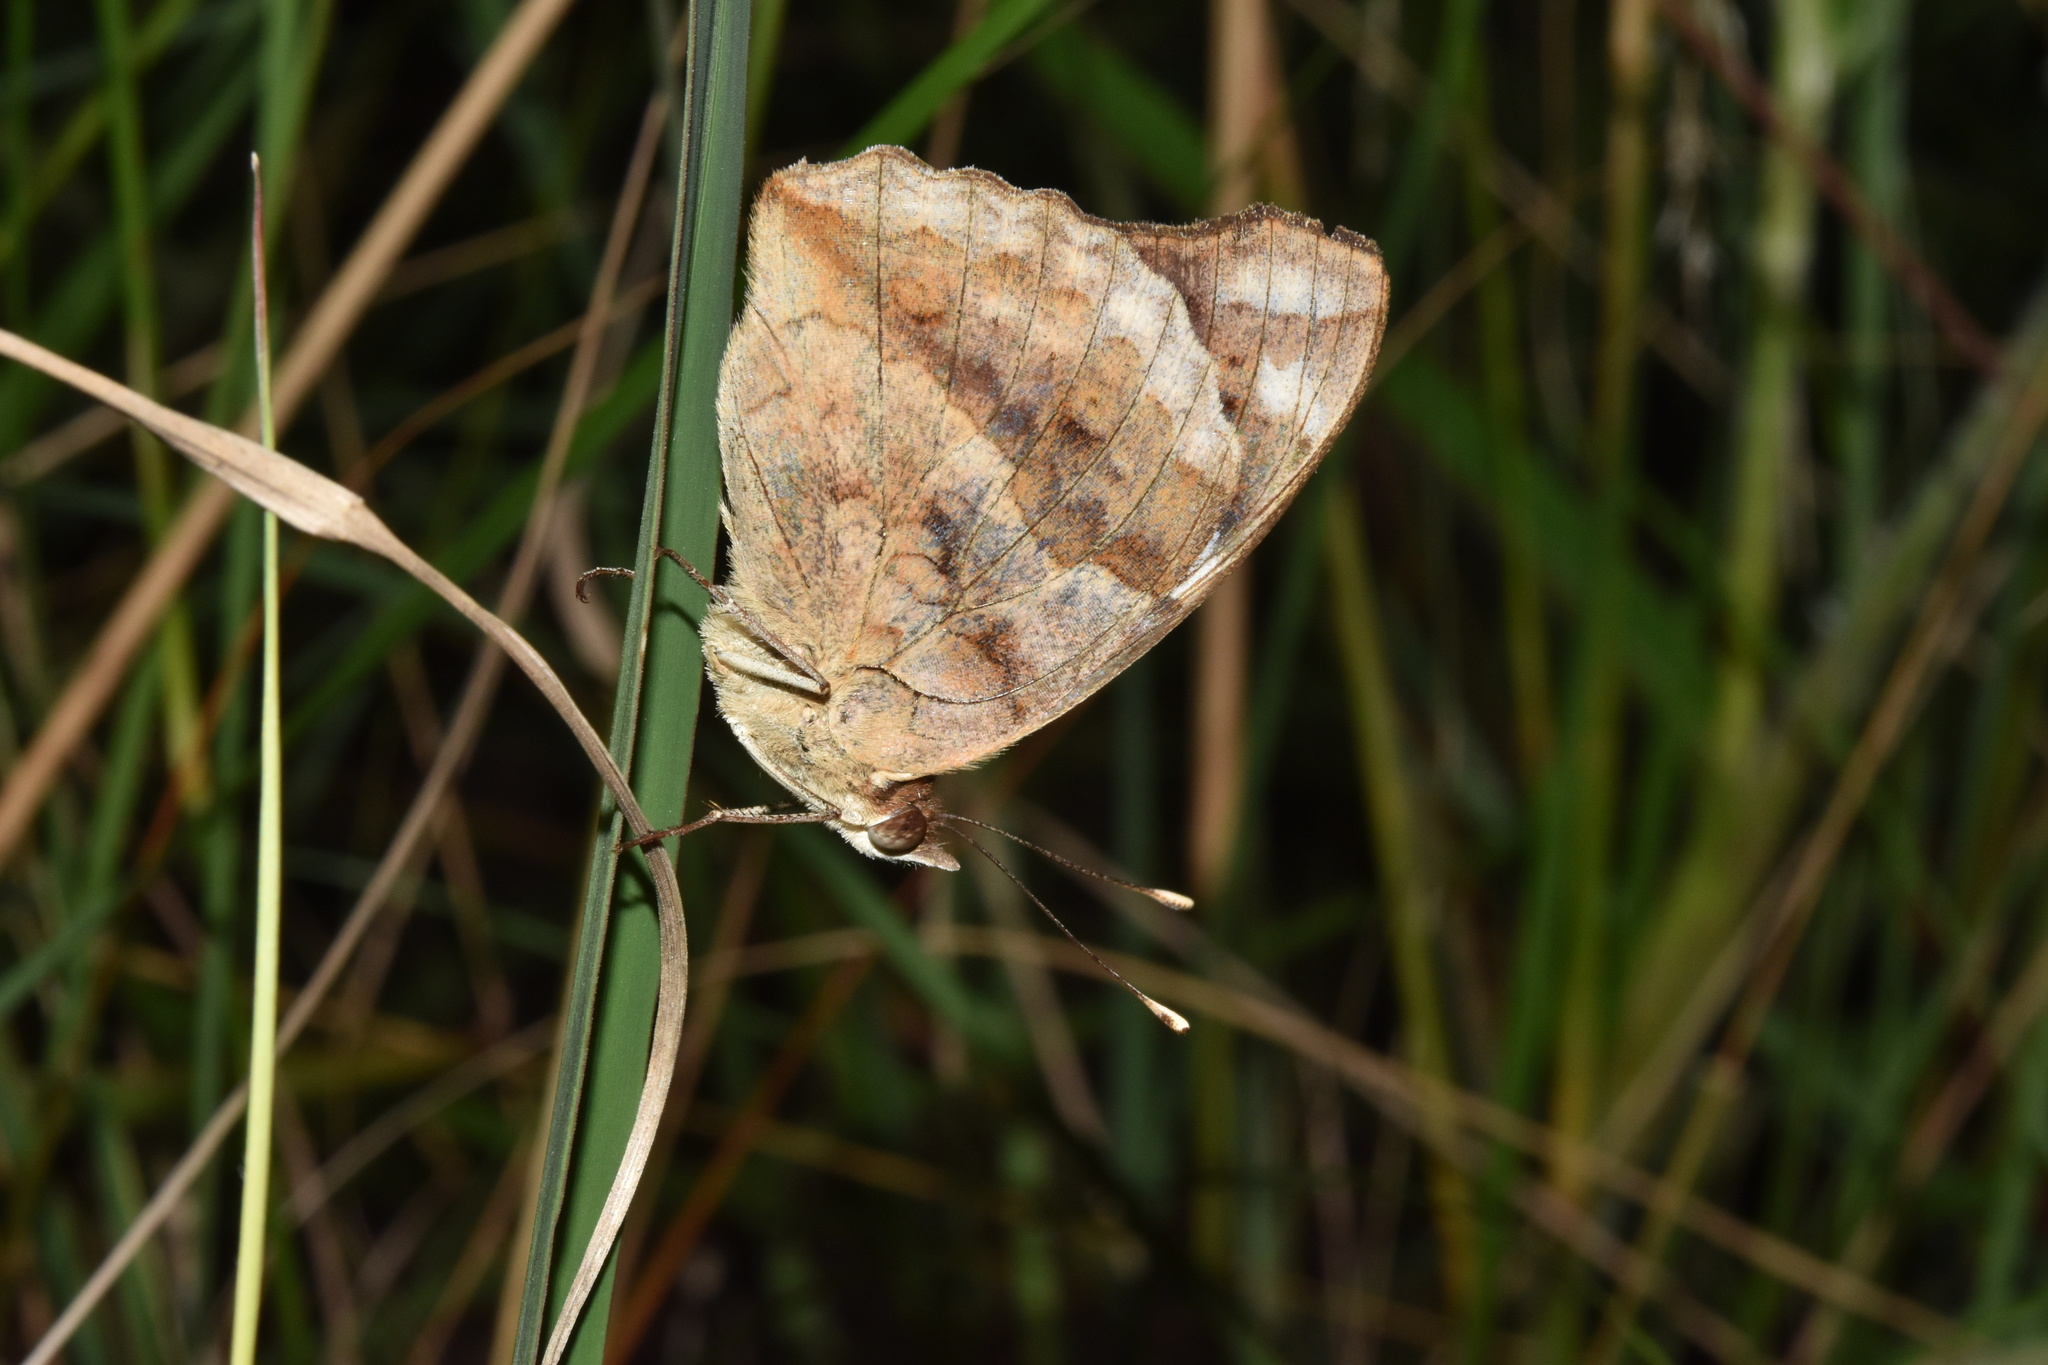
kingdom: Animalia
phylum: Arthropoda
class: Insecta
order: Lepidoptera
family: Nymphalidae
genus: Junonia
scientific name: Junonia oenone
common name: Dark blue pansy
